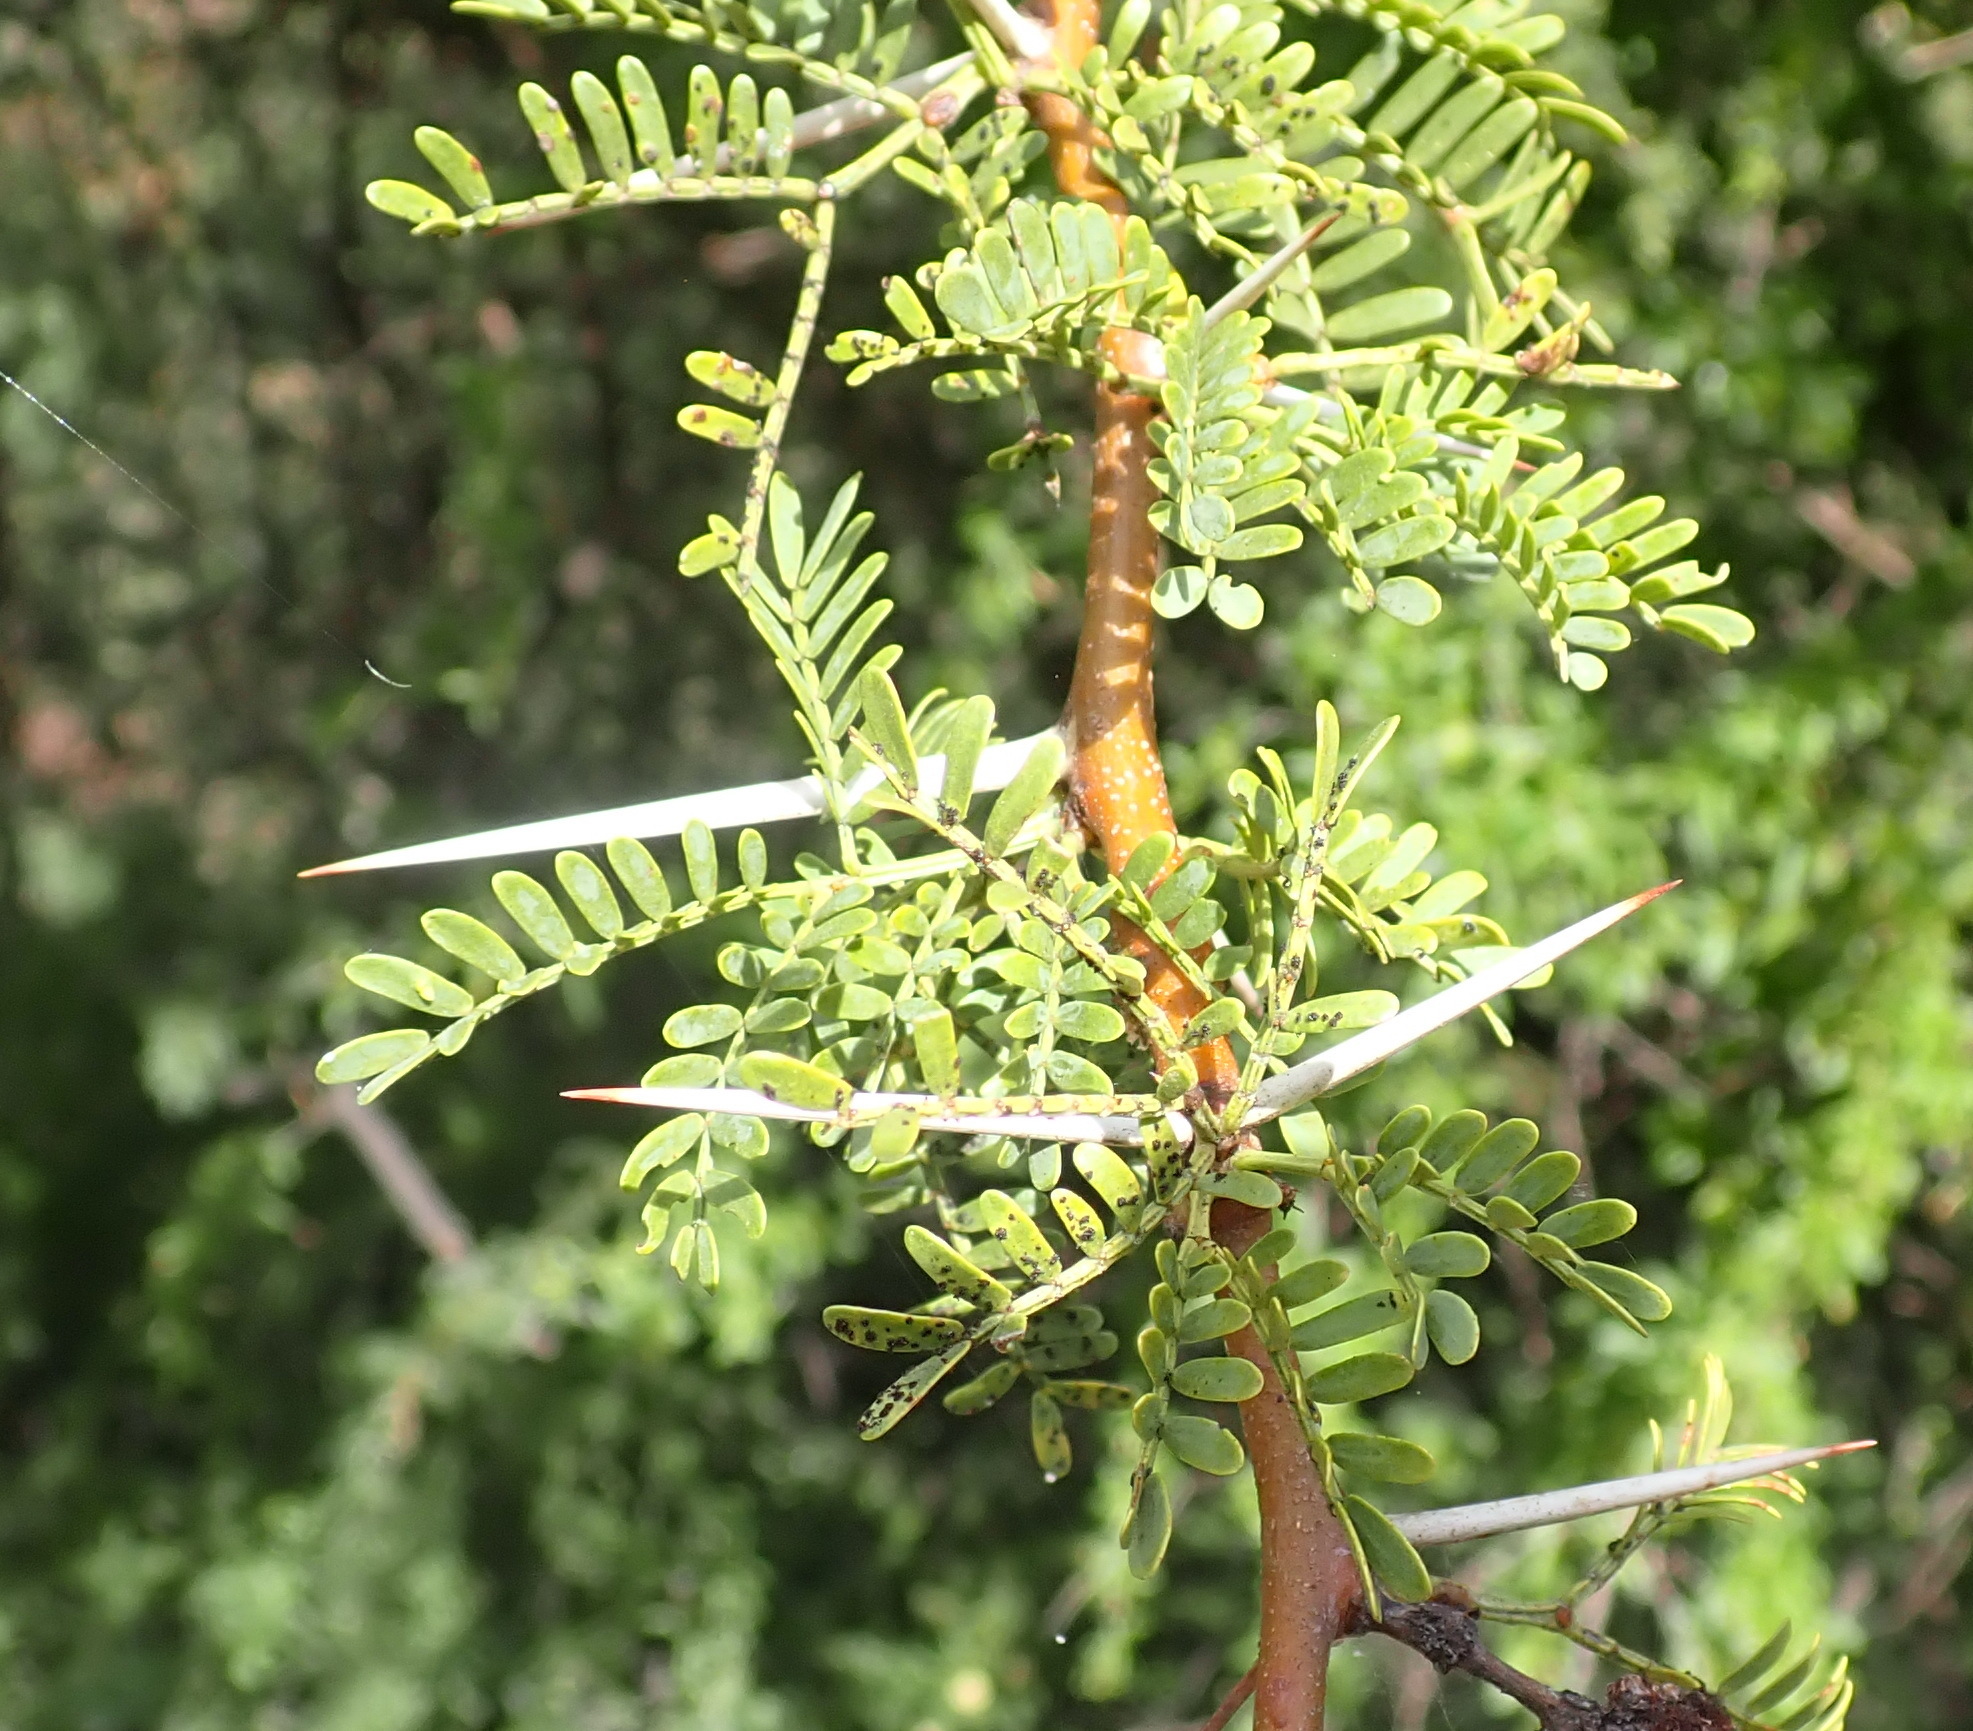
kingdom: Plantae
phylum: Tracheophyta
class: Magnoliopsida
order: Fabales
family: Fabaceae
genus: Vachellia
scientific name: Vachellia karroo
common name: Sweet thorn
